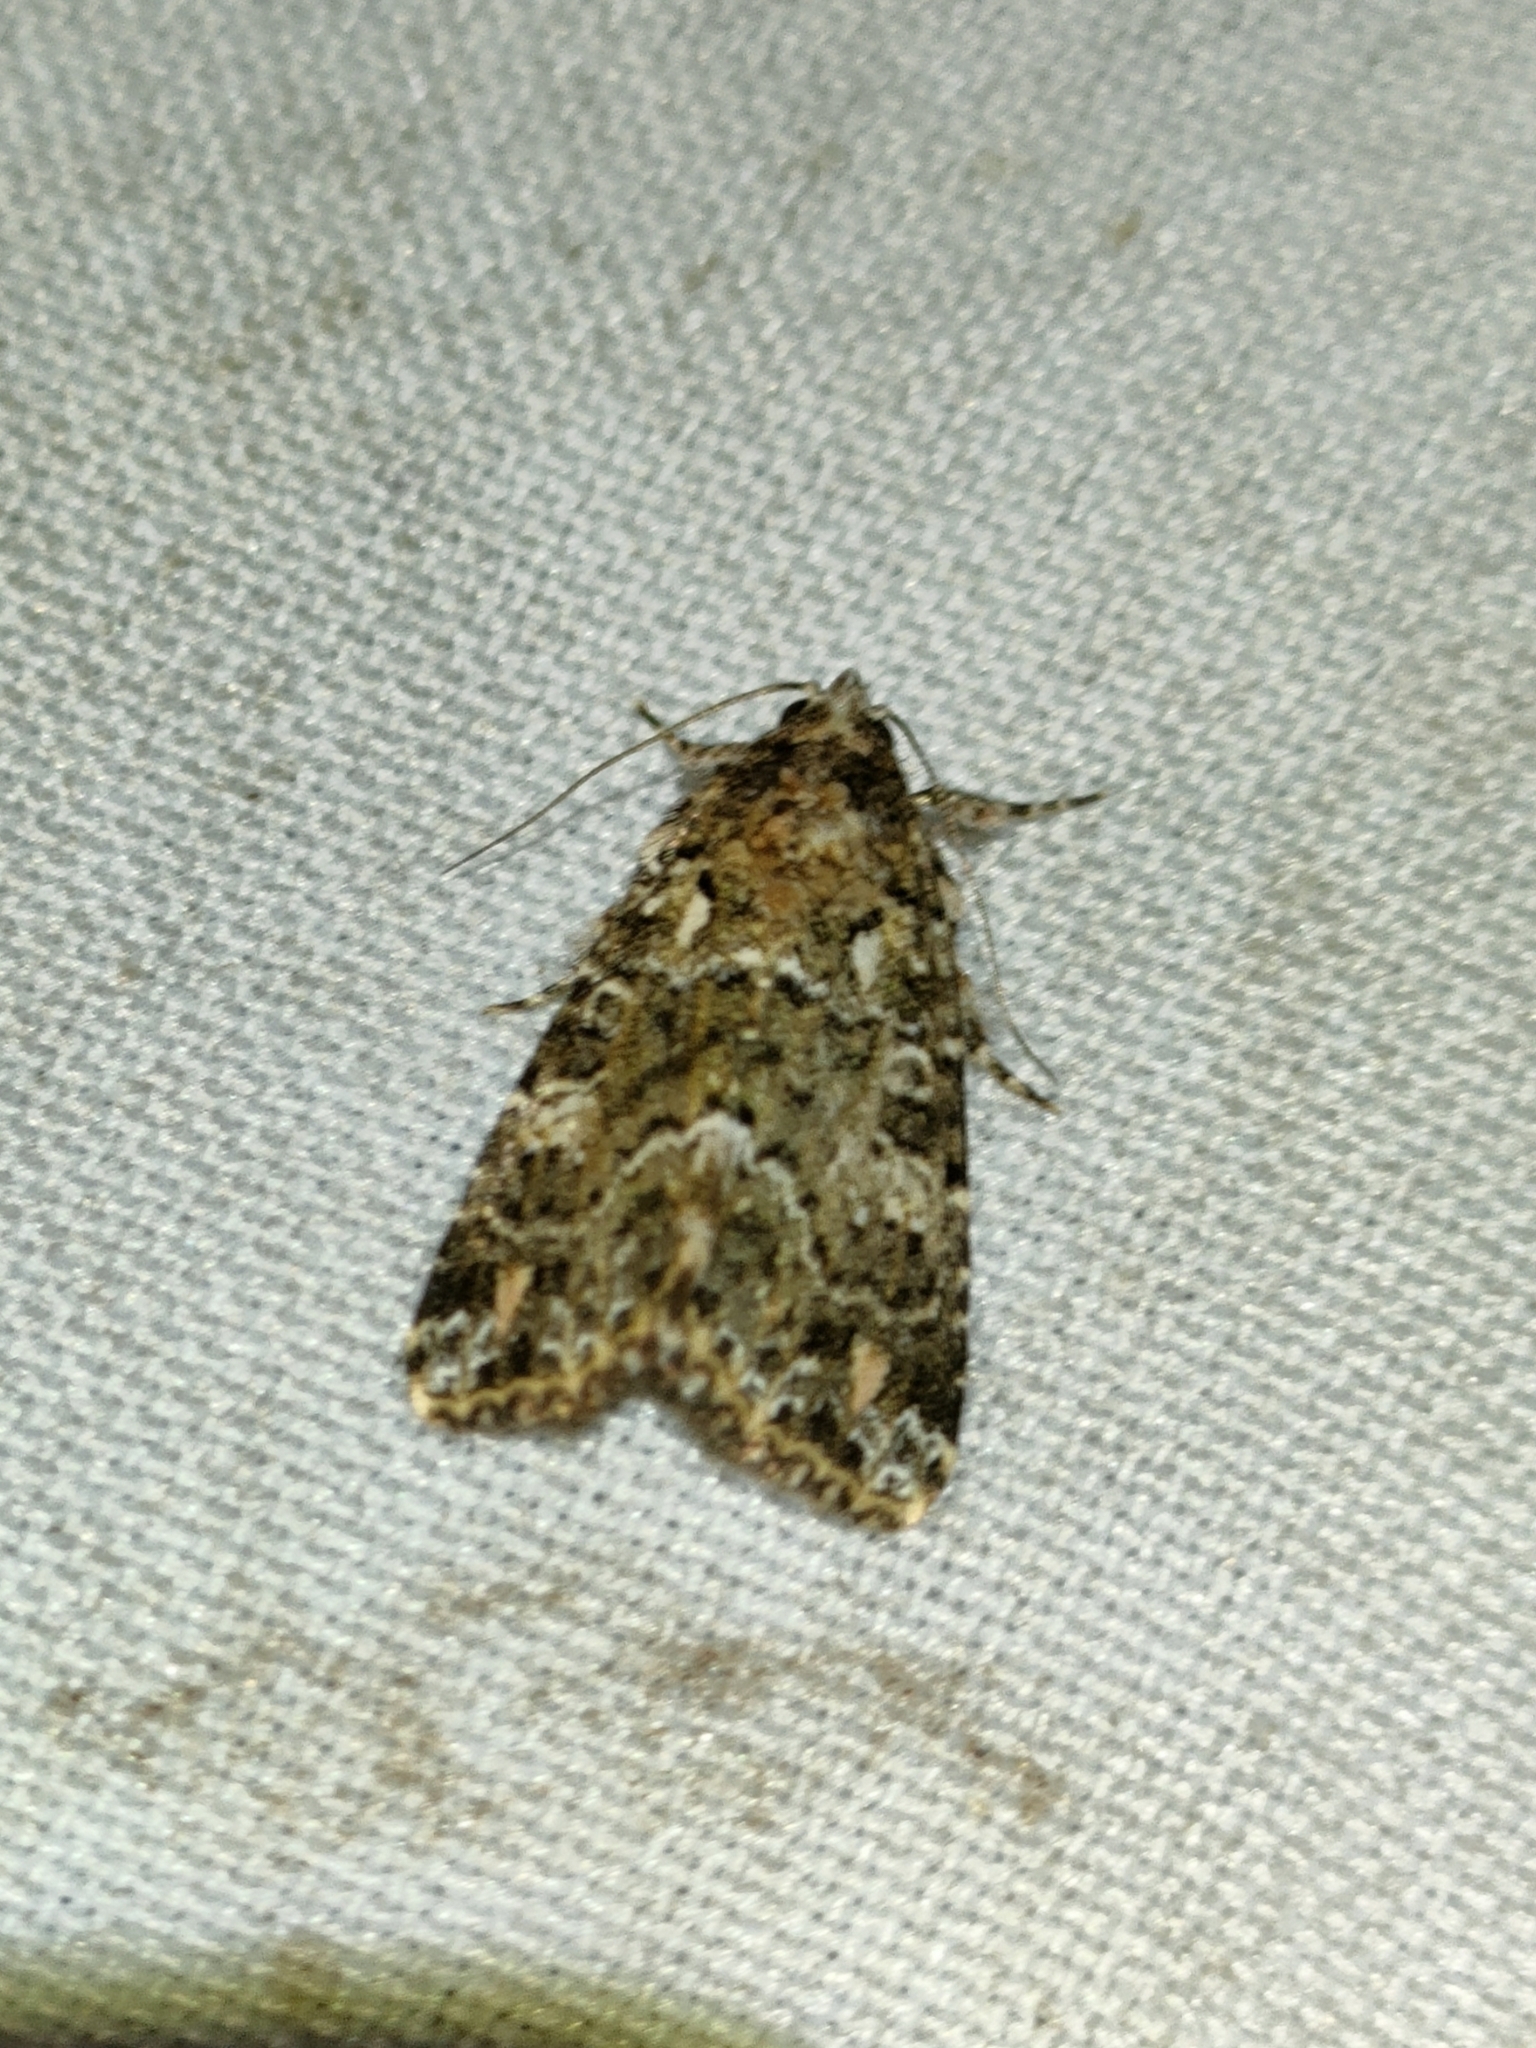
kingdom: Animalia
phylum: Arthropoda
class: Insecta
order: Lepidoptera
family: Noctuidae
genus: Callopistria
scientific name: Callopistria latreillei
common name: Latreille's latin
